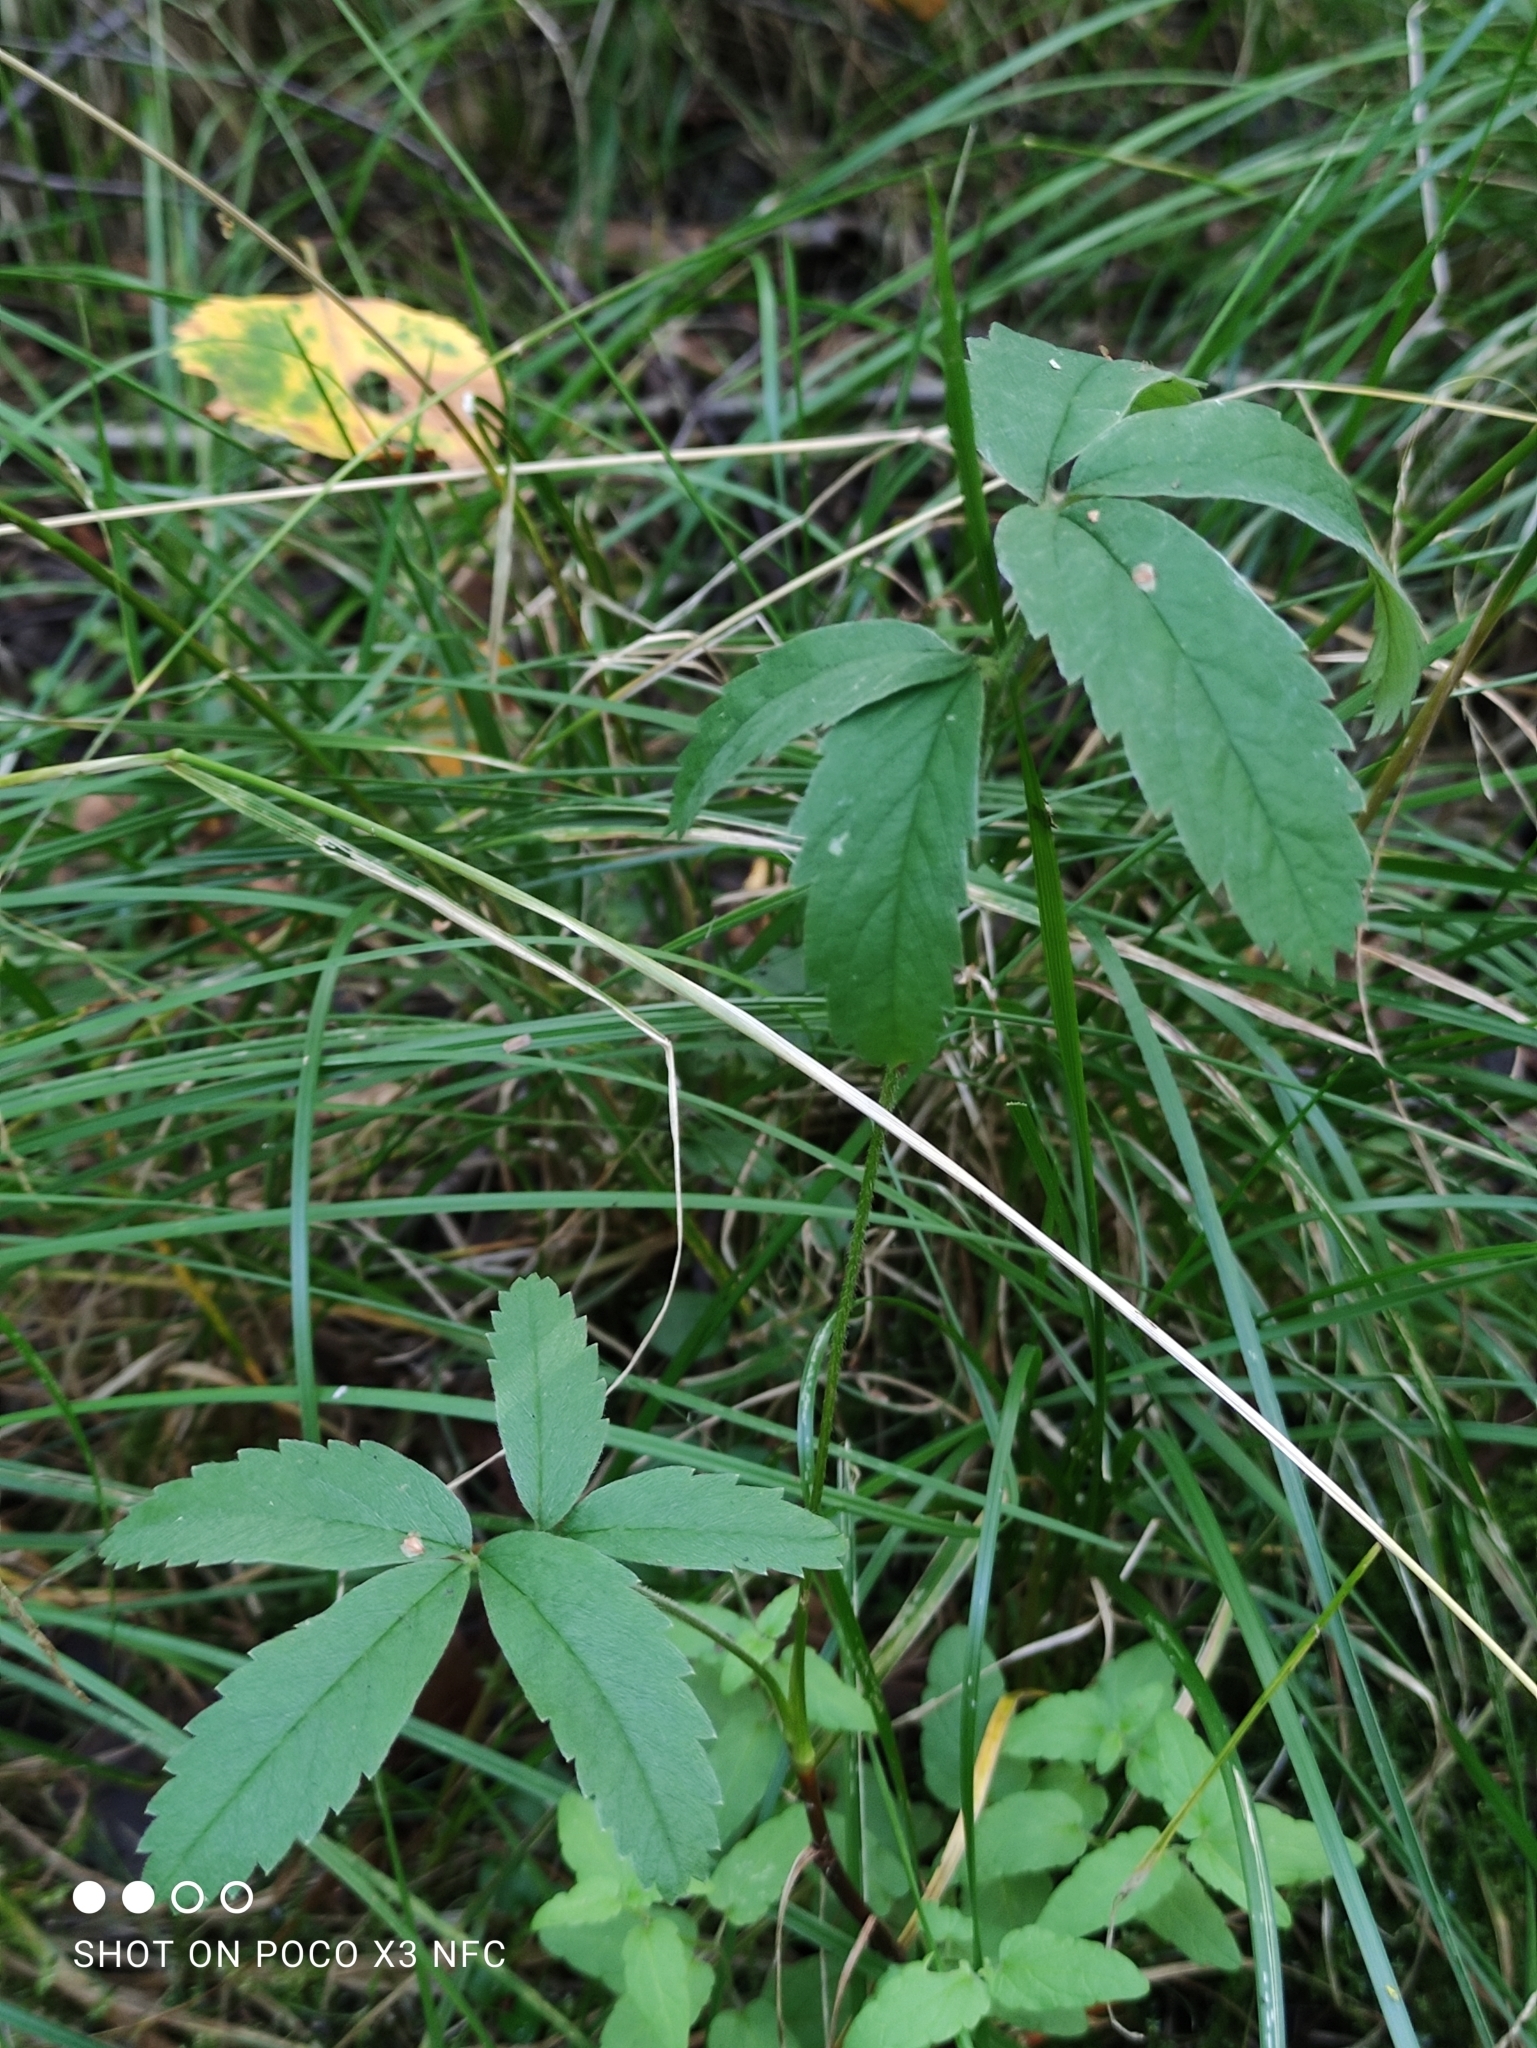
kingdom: Plantae
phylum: Tracheophyta
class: Magnoliopsida
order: Rosales
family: Rosaceae
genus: Comarum
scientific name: Comarum palustre
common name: Marsh cinquefoil
